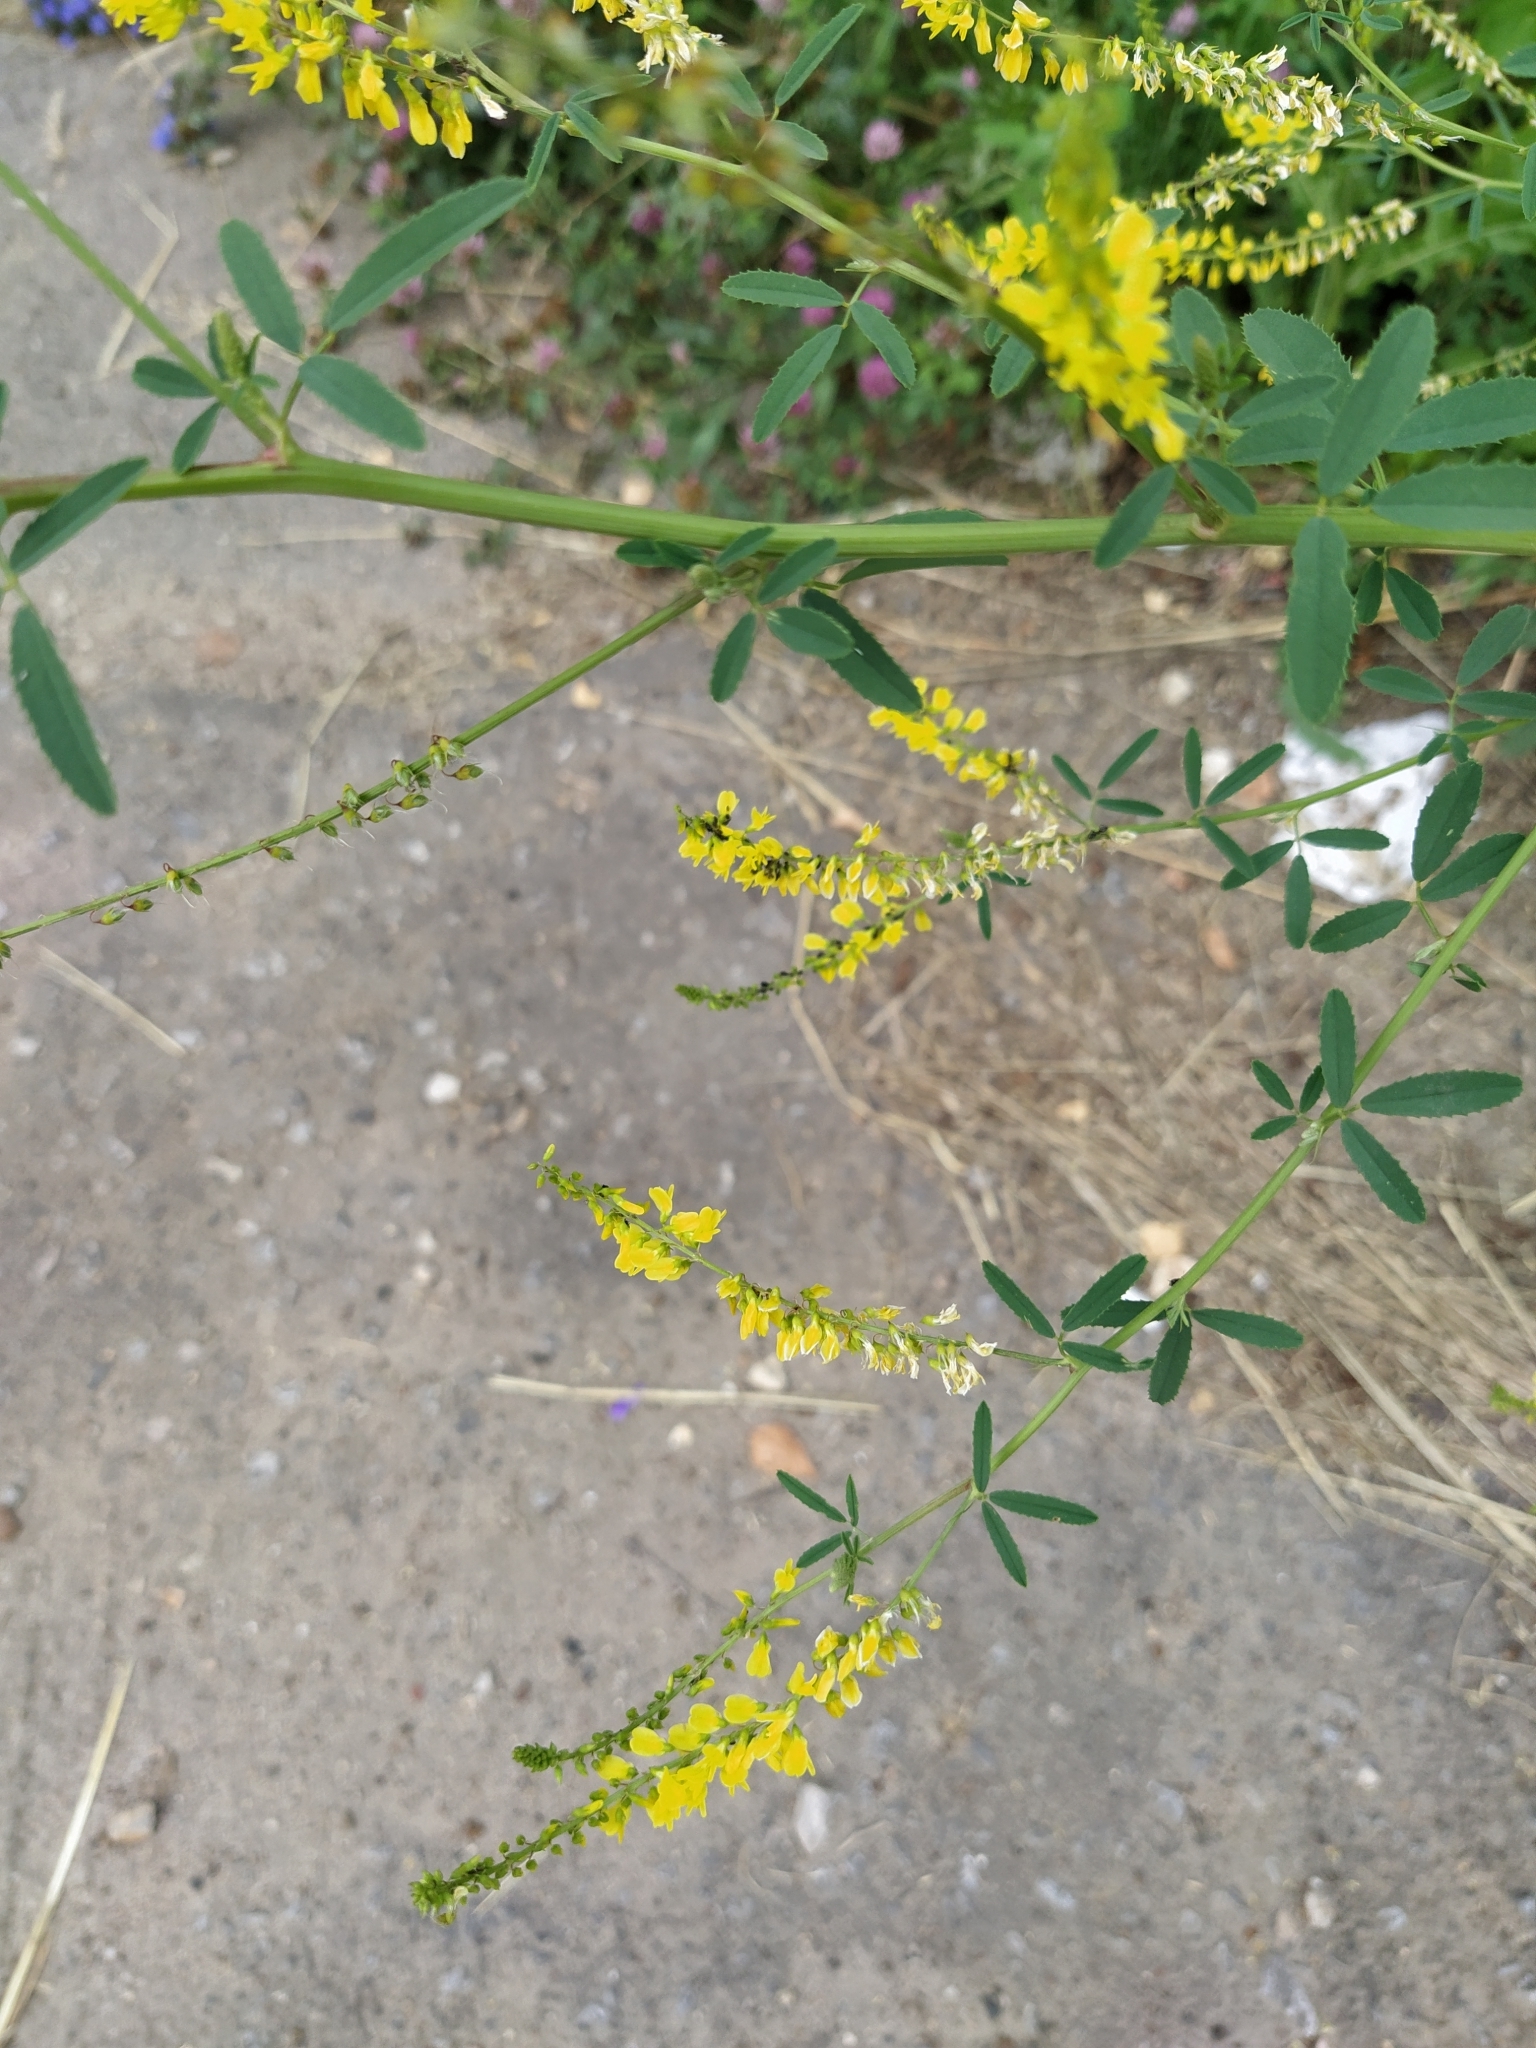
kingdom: Plantae
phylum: Tracheophyta
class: Magnoliopsida
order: Fabales
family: Fabaceae
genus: Melilotus
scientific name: Melilotus officinalis
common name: Sweetclover
